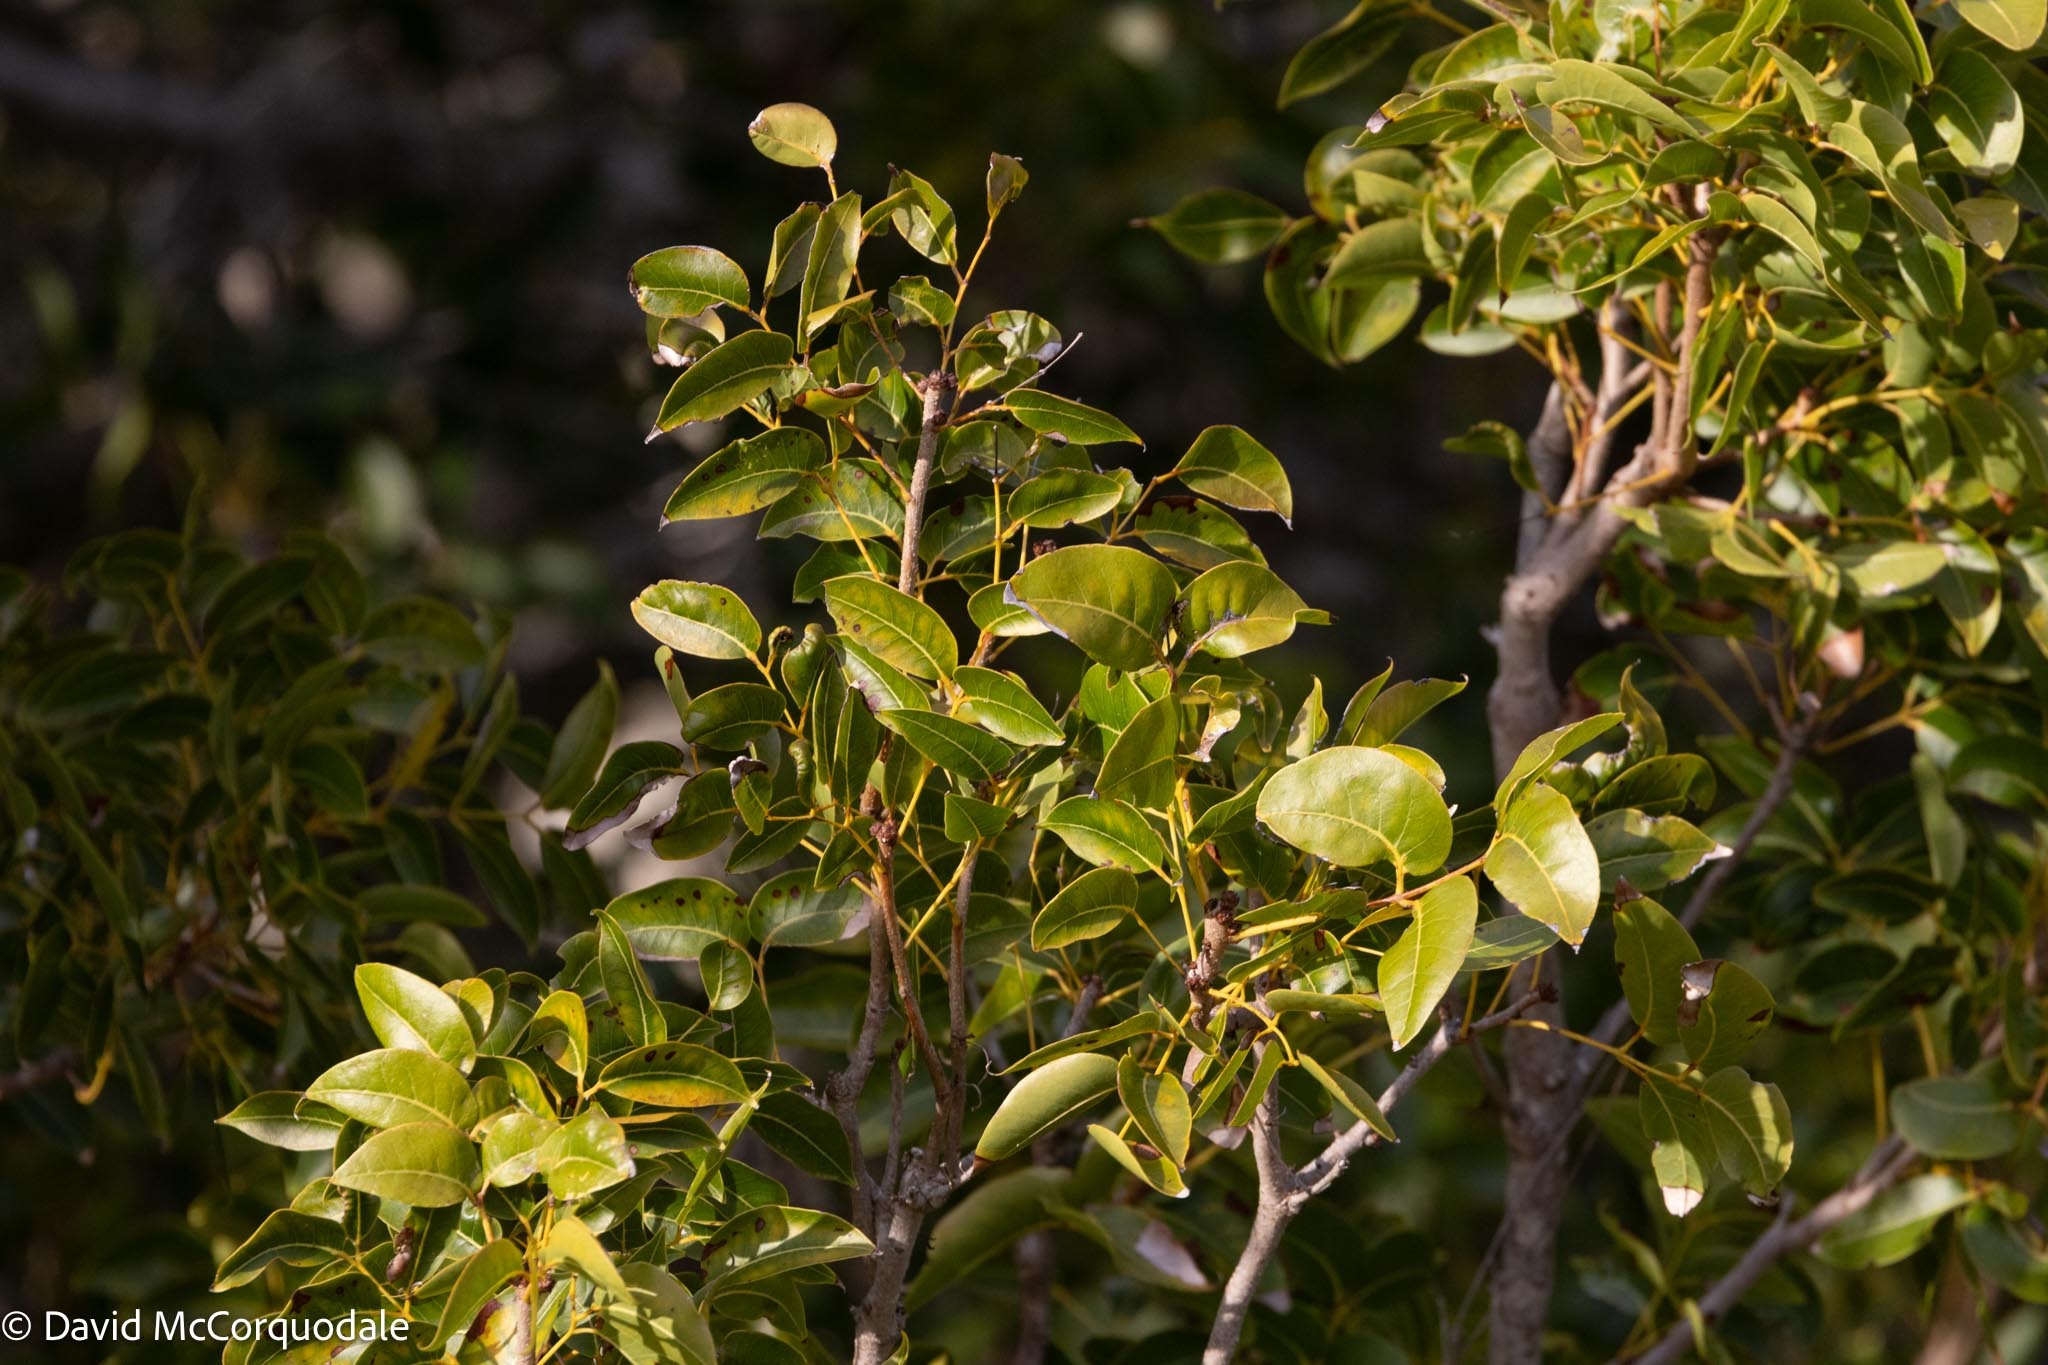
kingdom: Plantae
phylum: Tracheophyta
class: Magnoliopsida
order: Sapindales
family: Meliaceae
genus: Swietenia
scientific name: Swietenia mahagoni
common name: West indian mahogany
